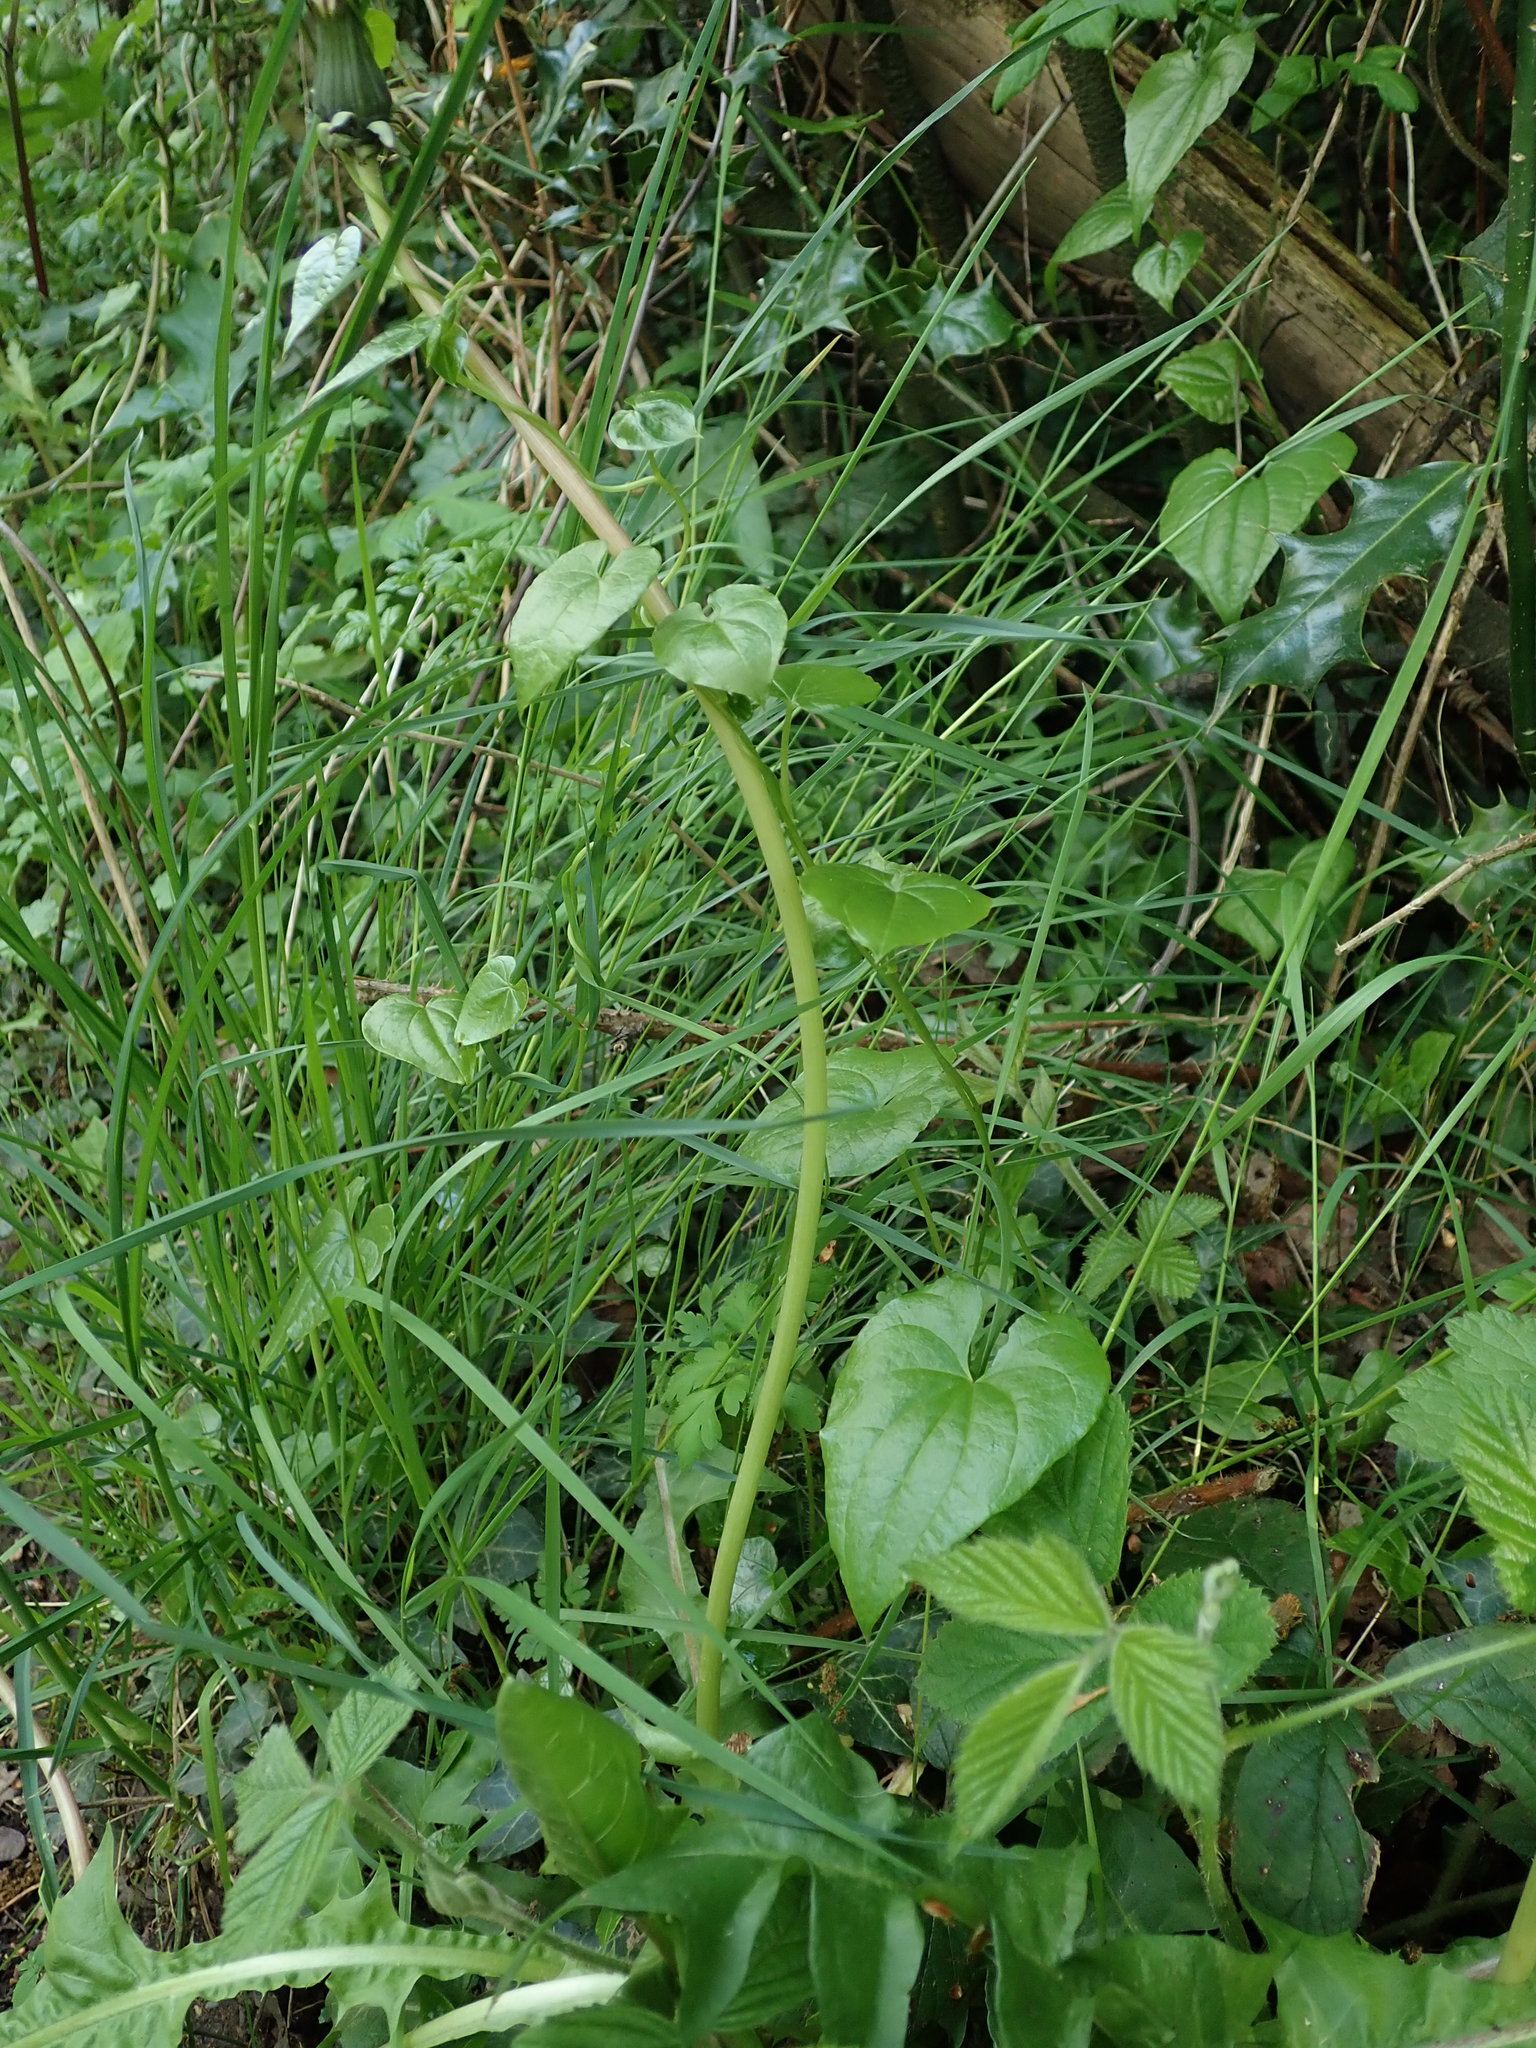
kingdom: Plantae
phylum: Tracheophyta
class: Liliopsida
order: Dioscoreales
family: Dioscoreaceae
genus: Dioscorea
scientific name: Dioscorea communis
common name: Black-bindweed
